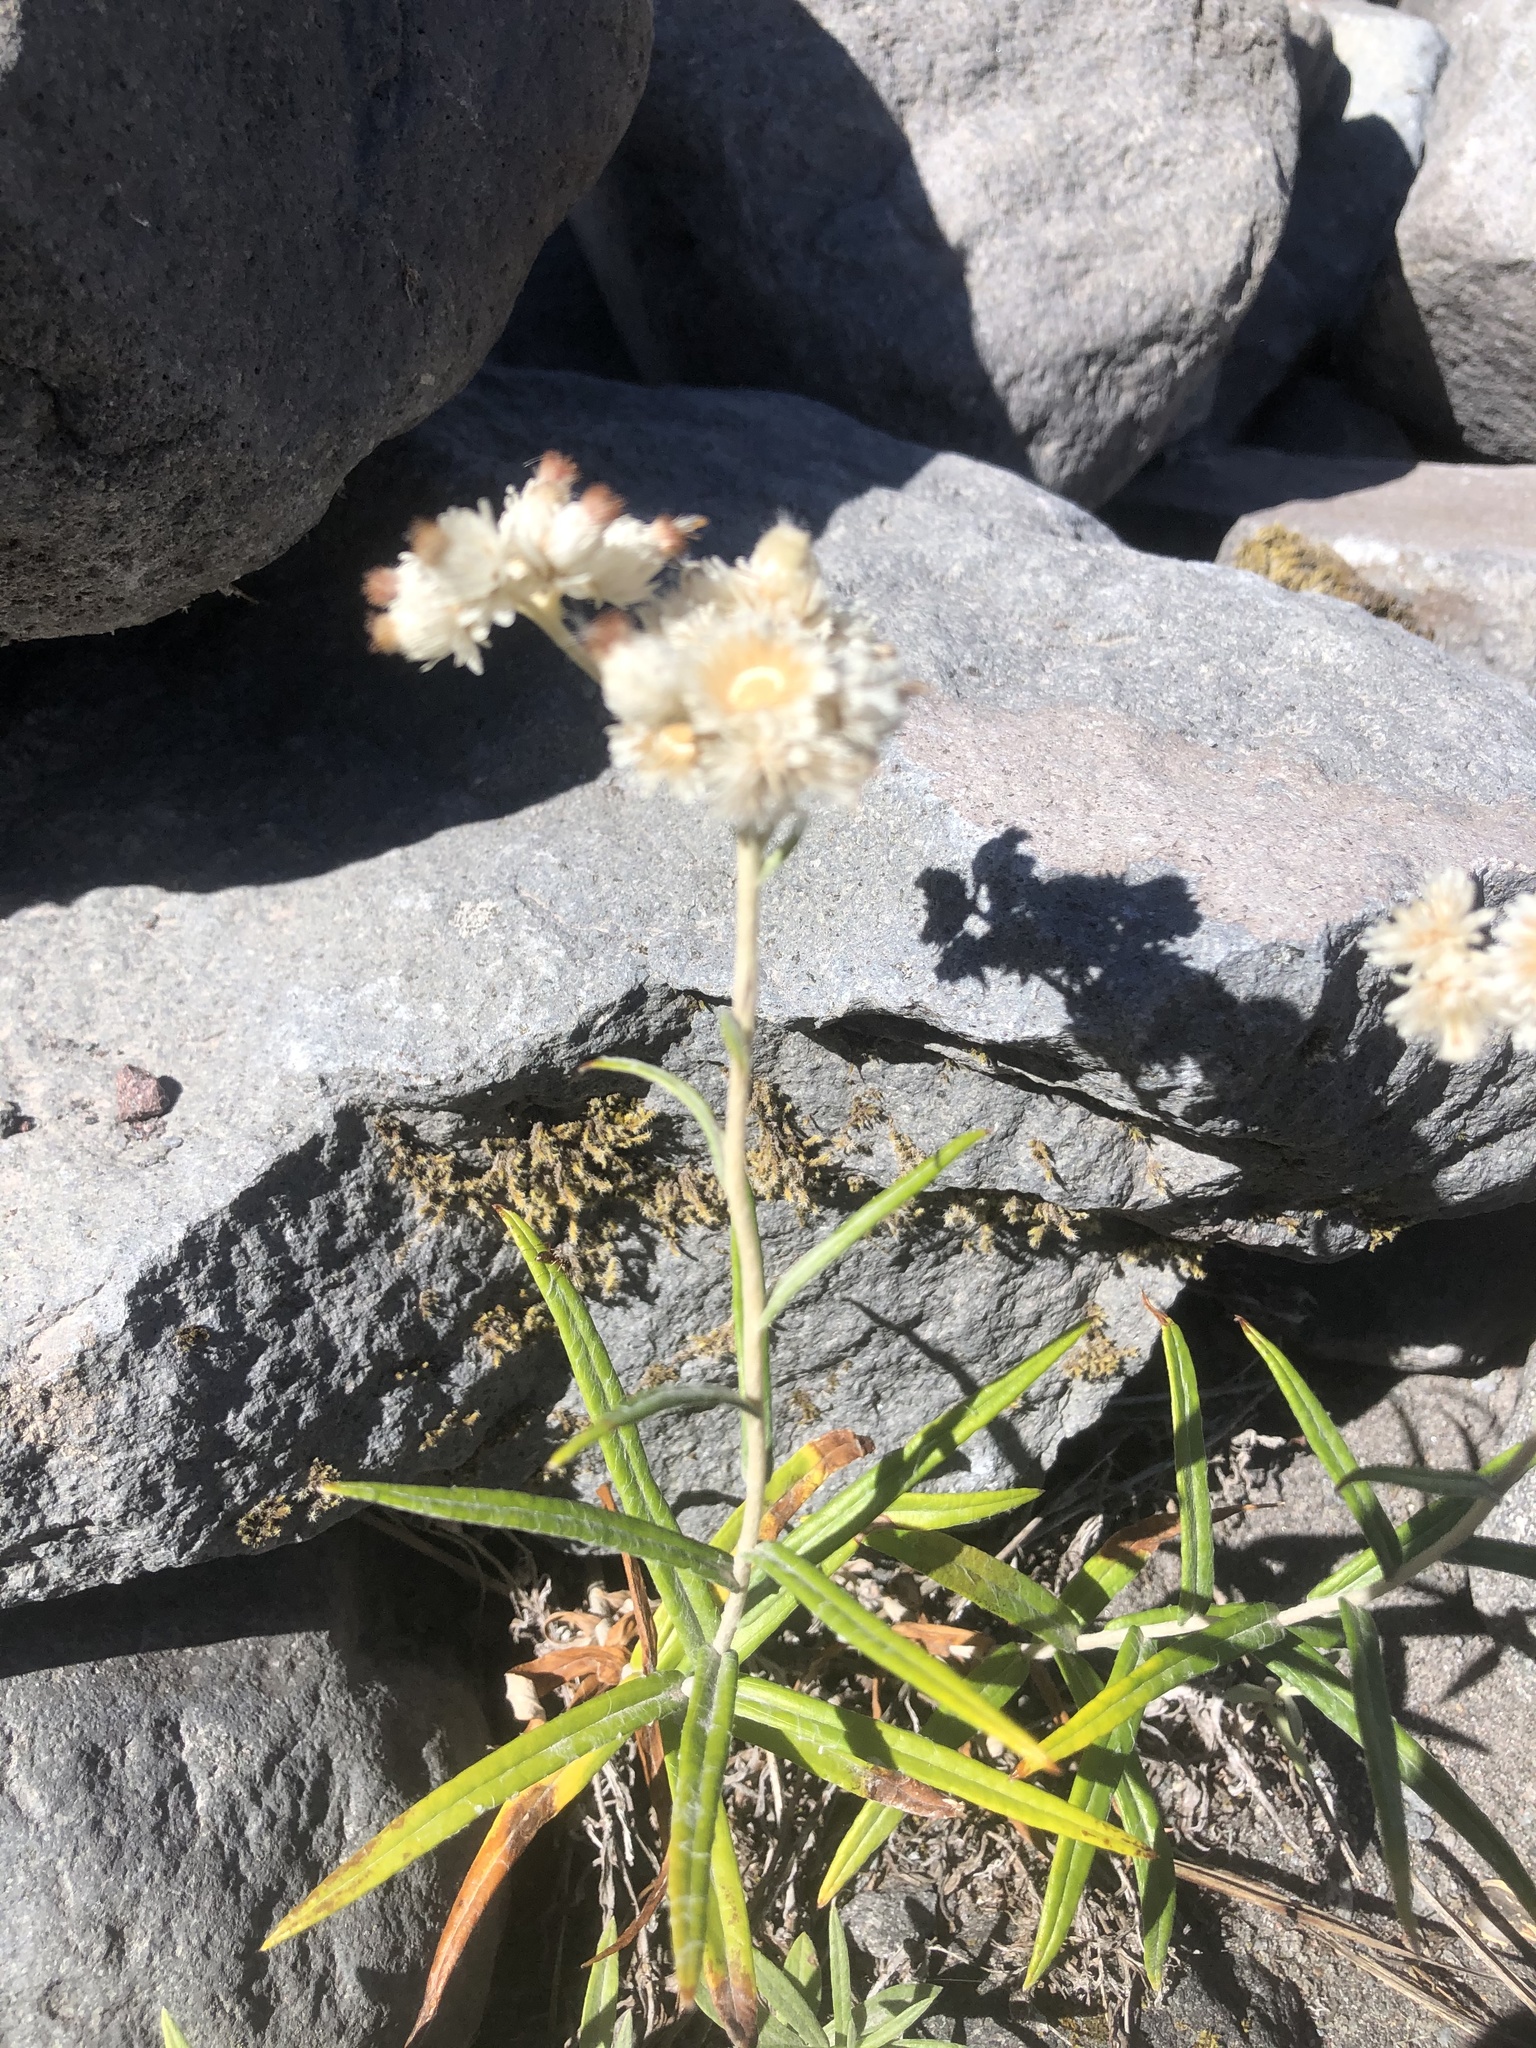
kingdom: Plantae
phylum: Tracheophyta
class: Magnoliopsida
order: Asterales
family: Asteraceae
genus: Anaphalis
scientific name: Anaphalis margaritacea
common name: Pearly everlasting
